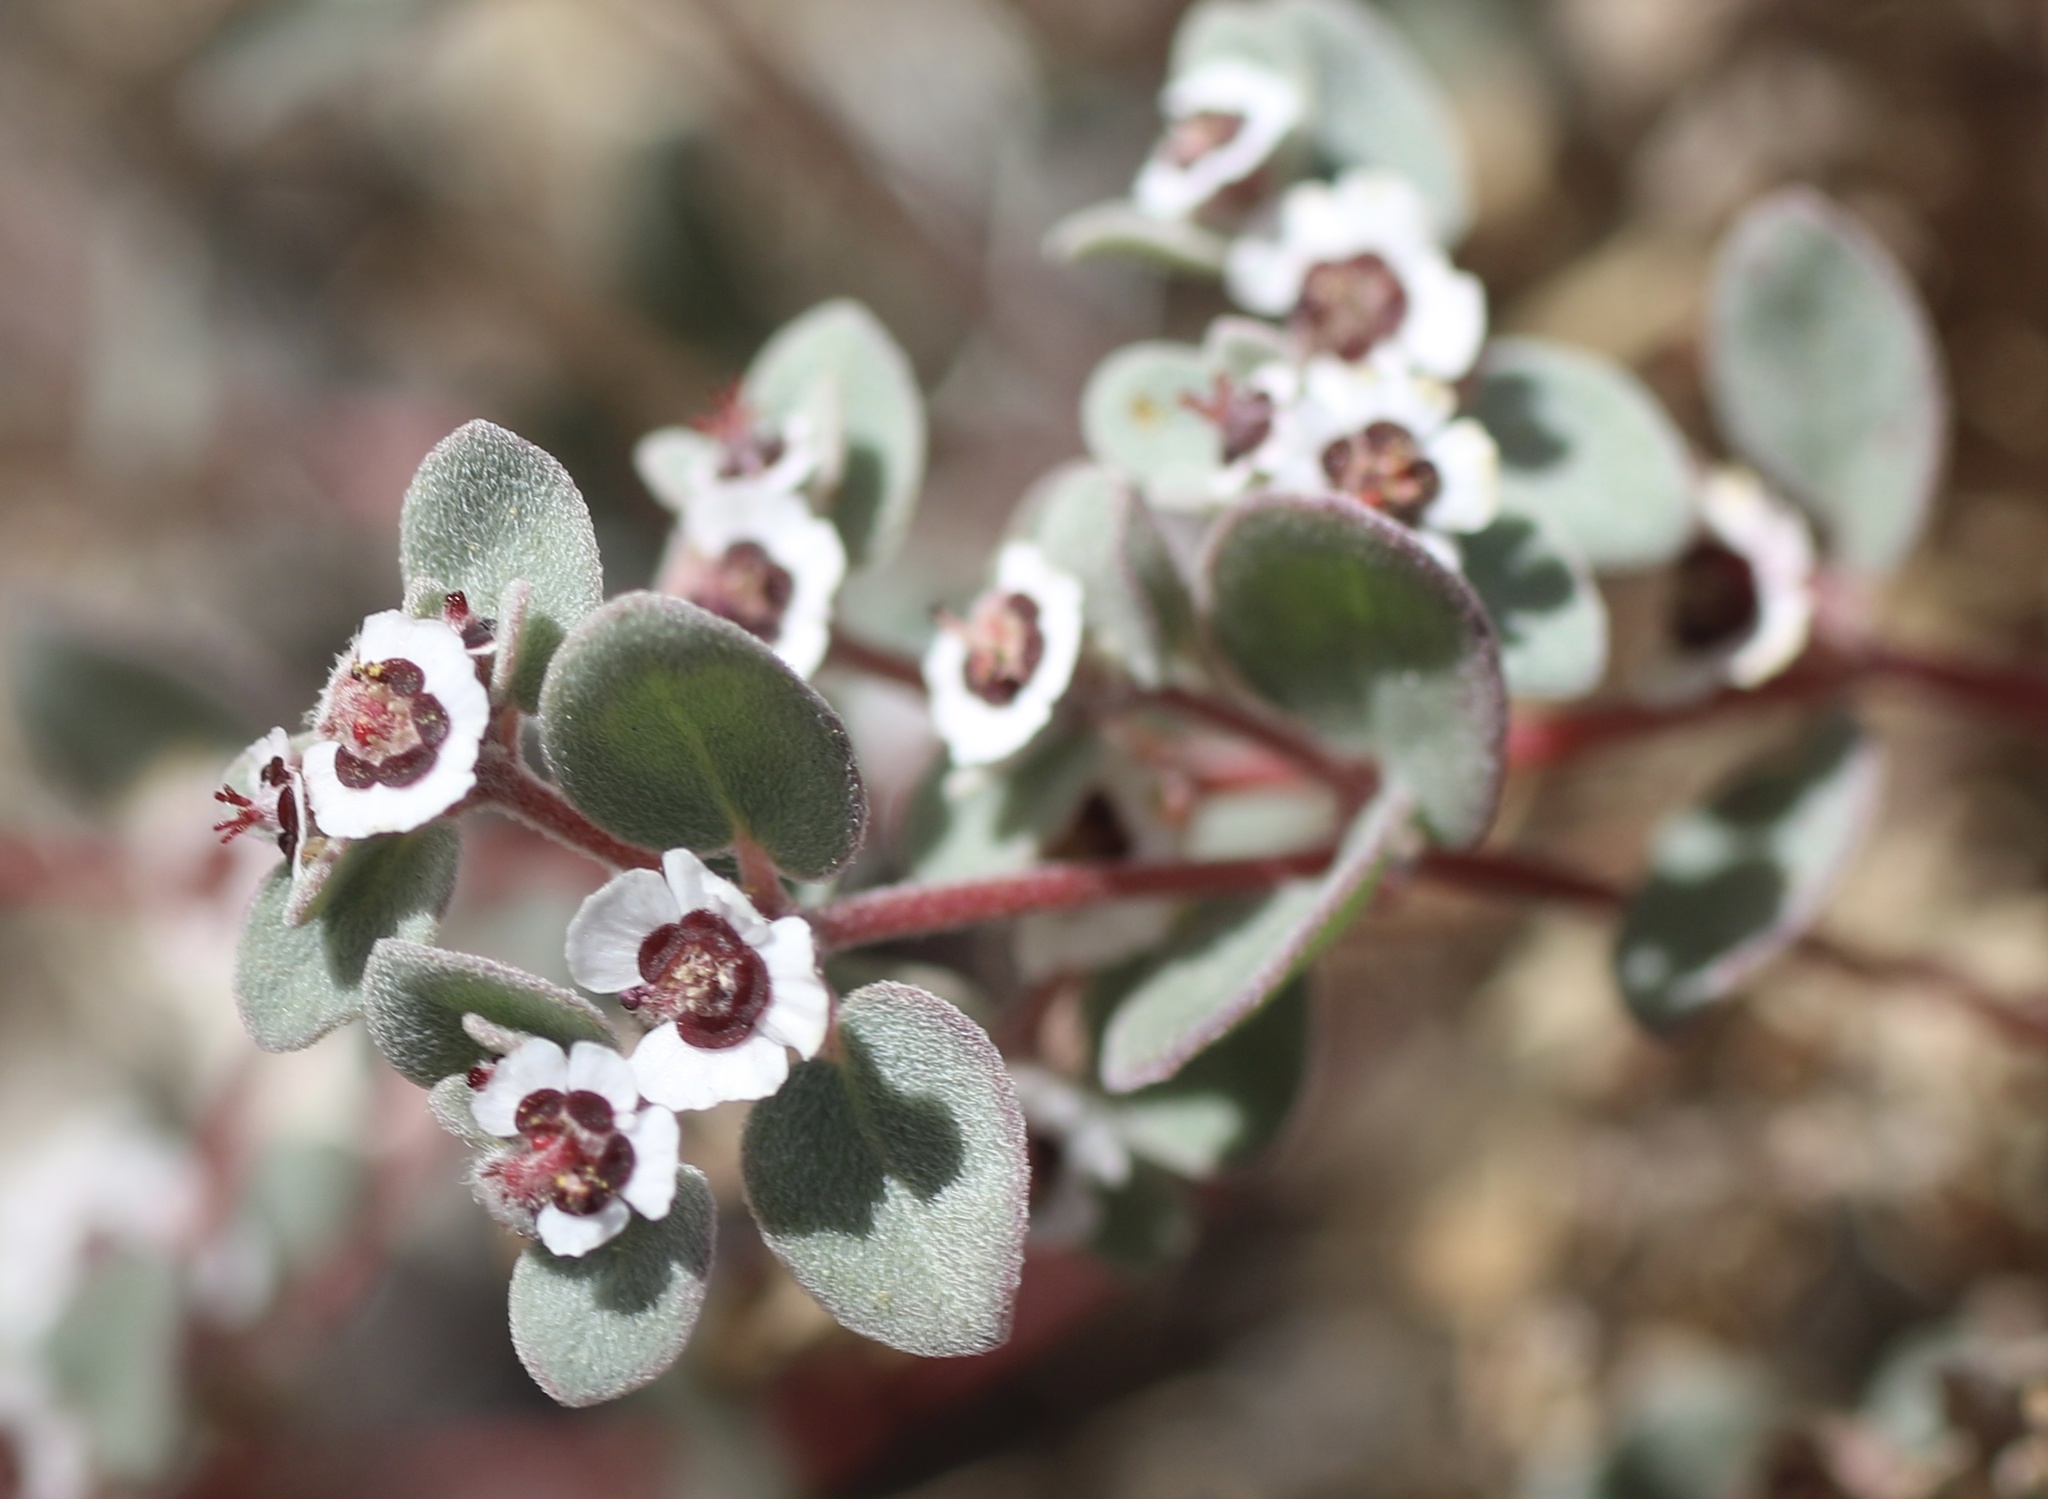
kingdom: Plantae
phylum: Tracheophyta
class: Magnoliopsida
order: Malpighiales
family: Euphorbiaceae
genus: Euphorbia
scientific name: Euphorbia melanadenia
